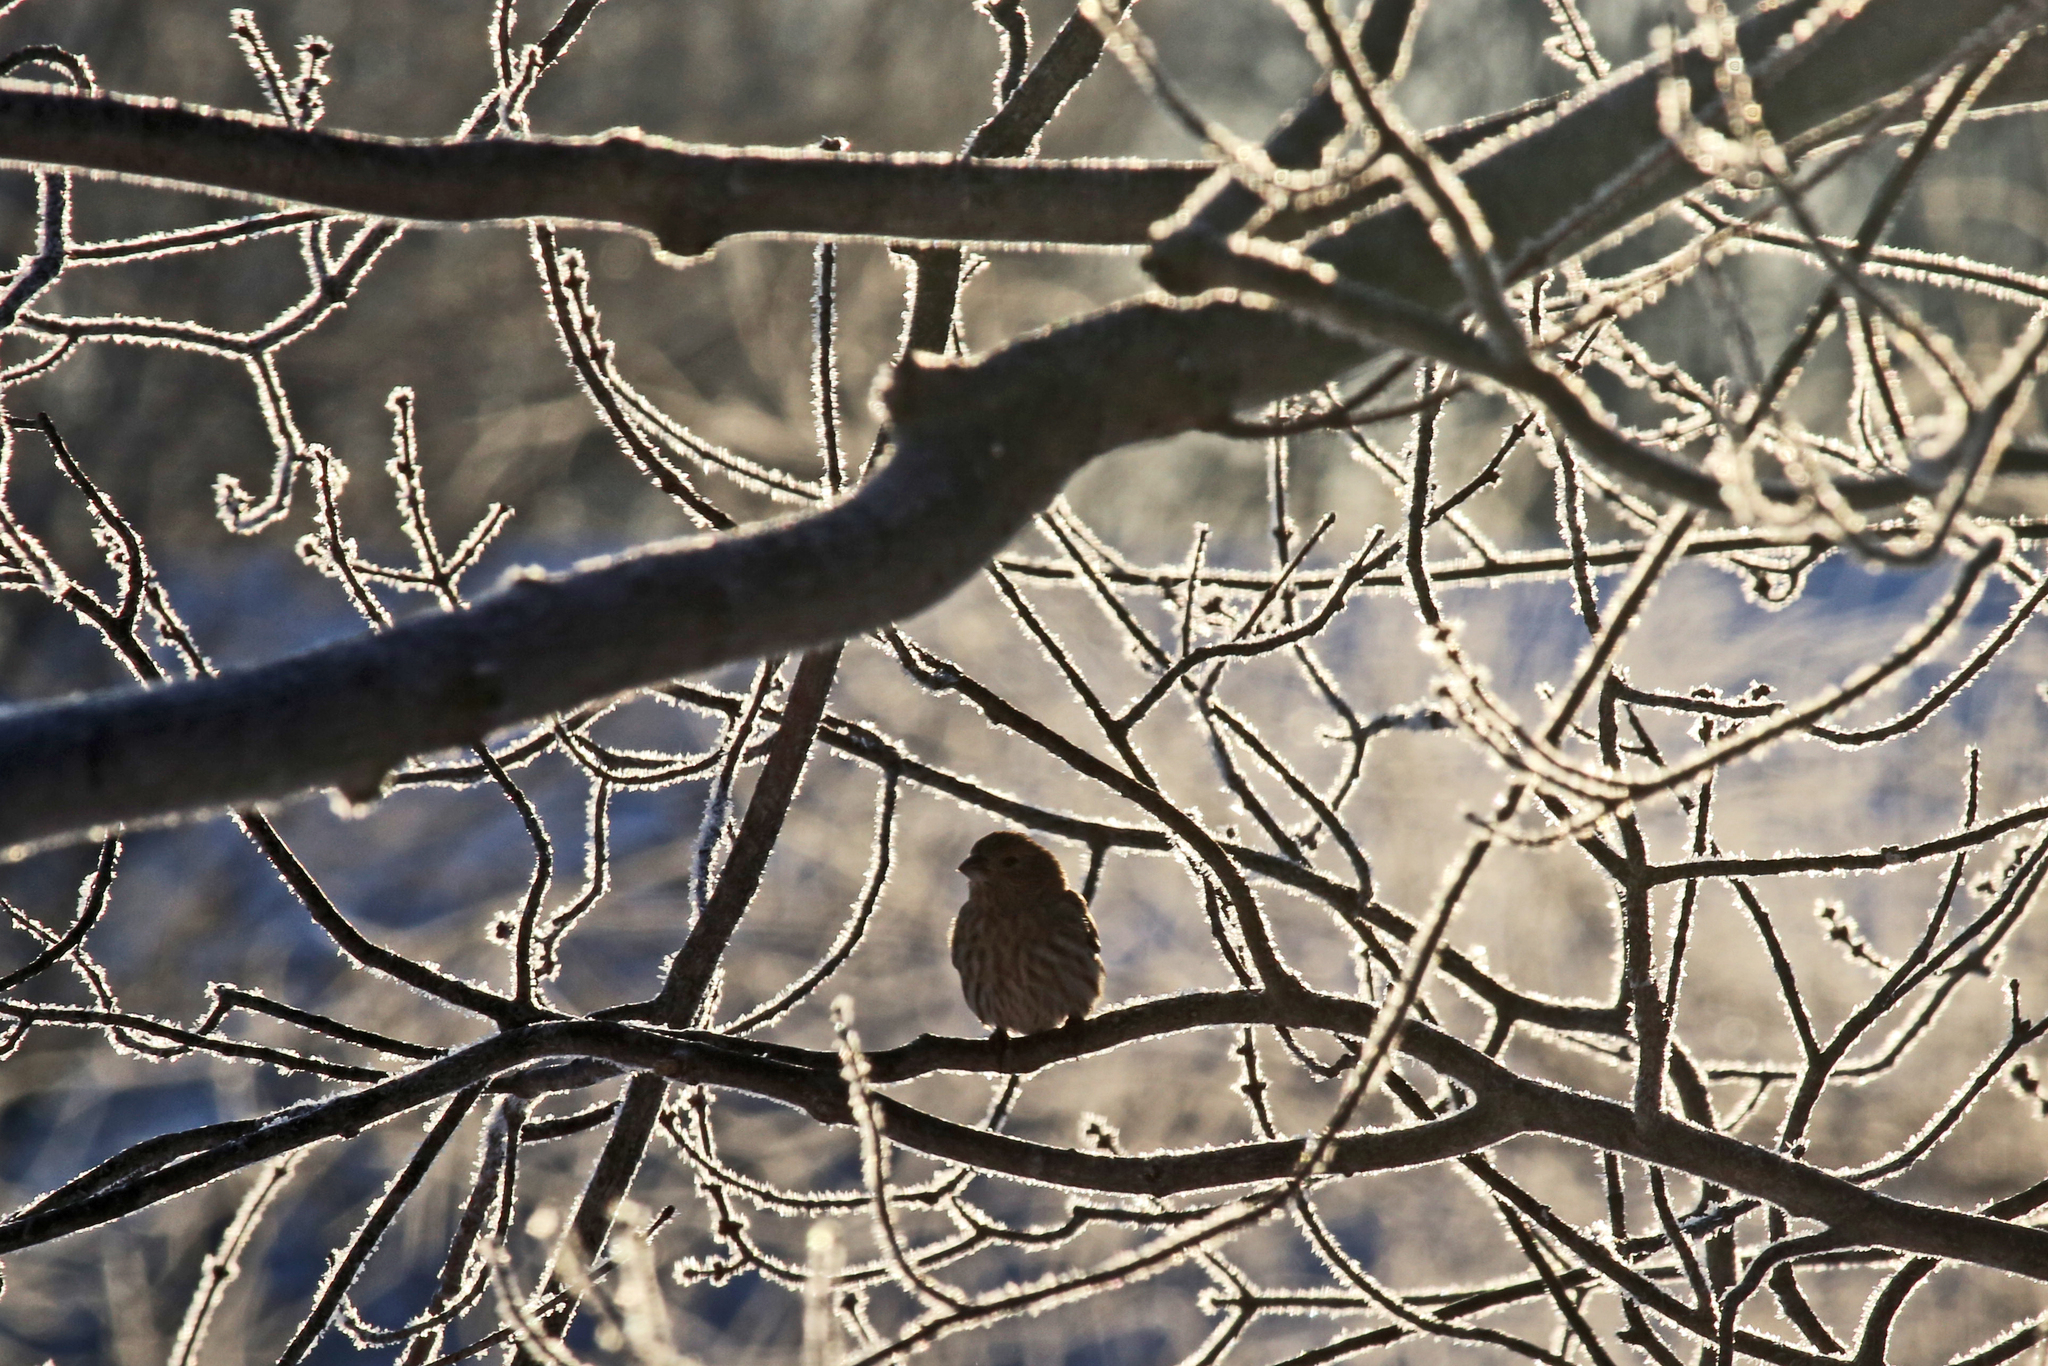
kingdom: Animalia
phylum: Chordata
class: Aves
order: Passeriformes
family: Fringillidae
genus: Haemorhous
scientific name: Haemorhous mexicanus
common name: House finch
